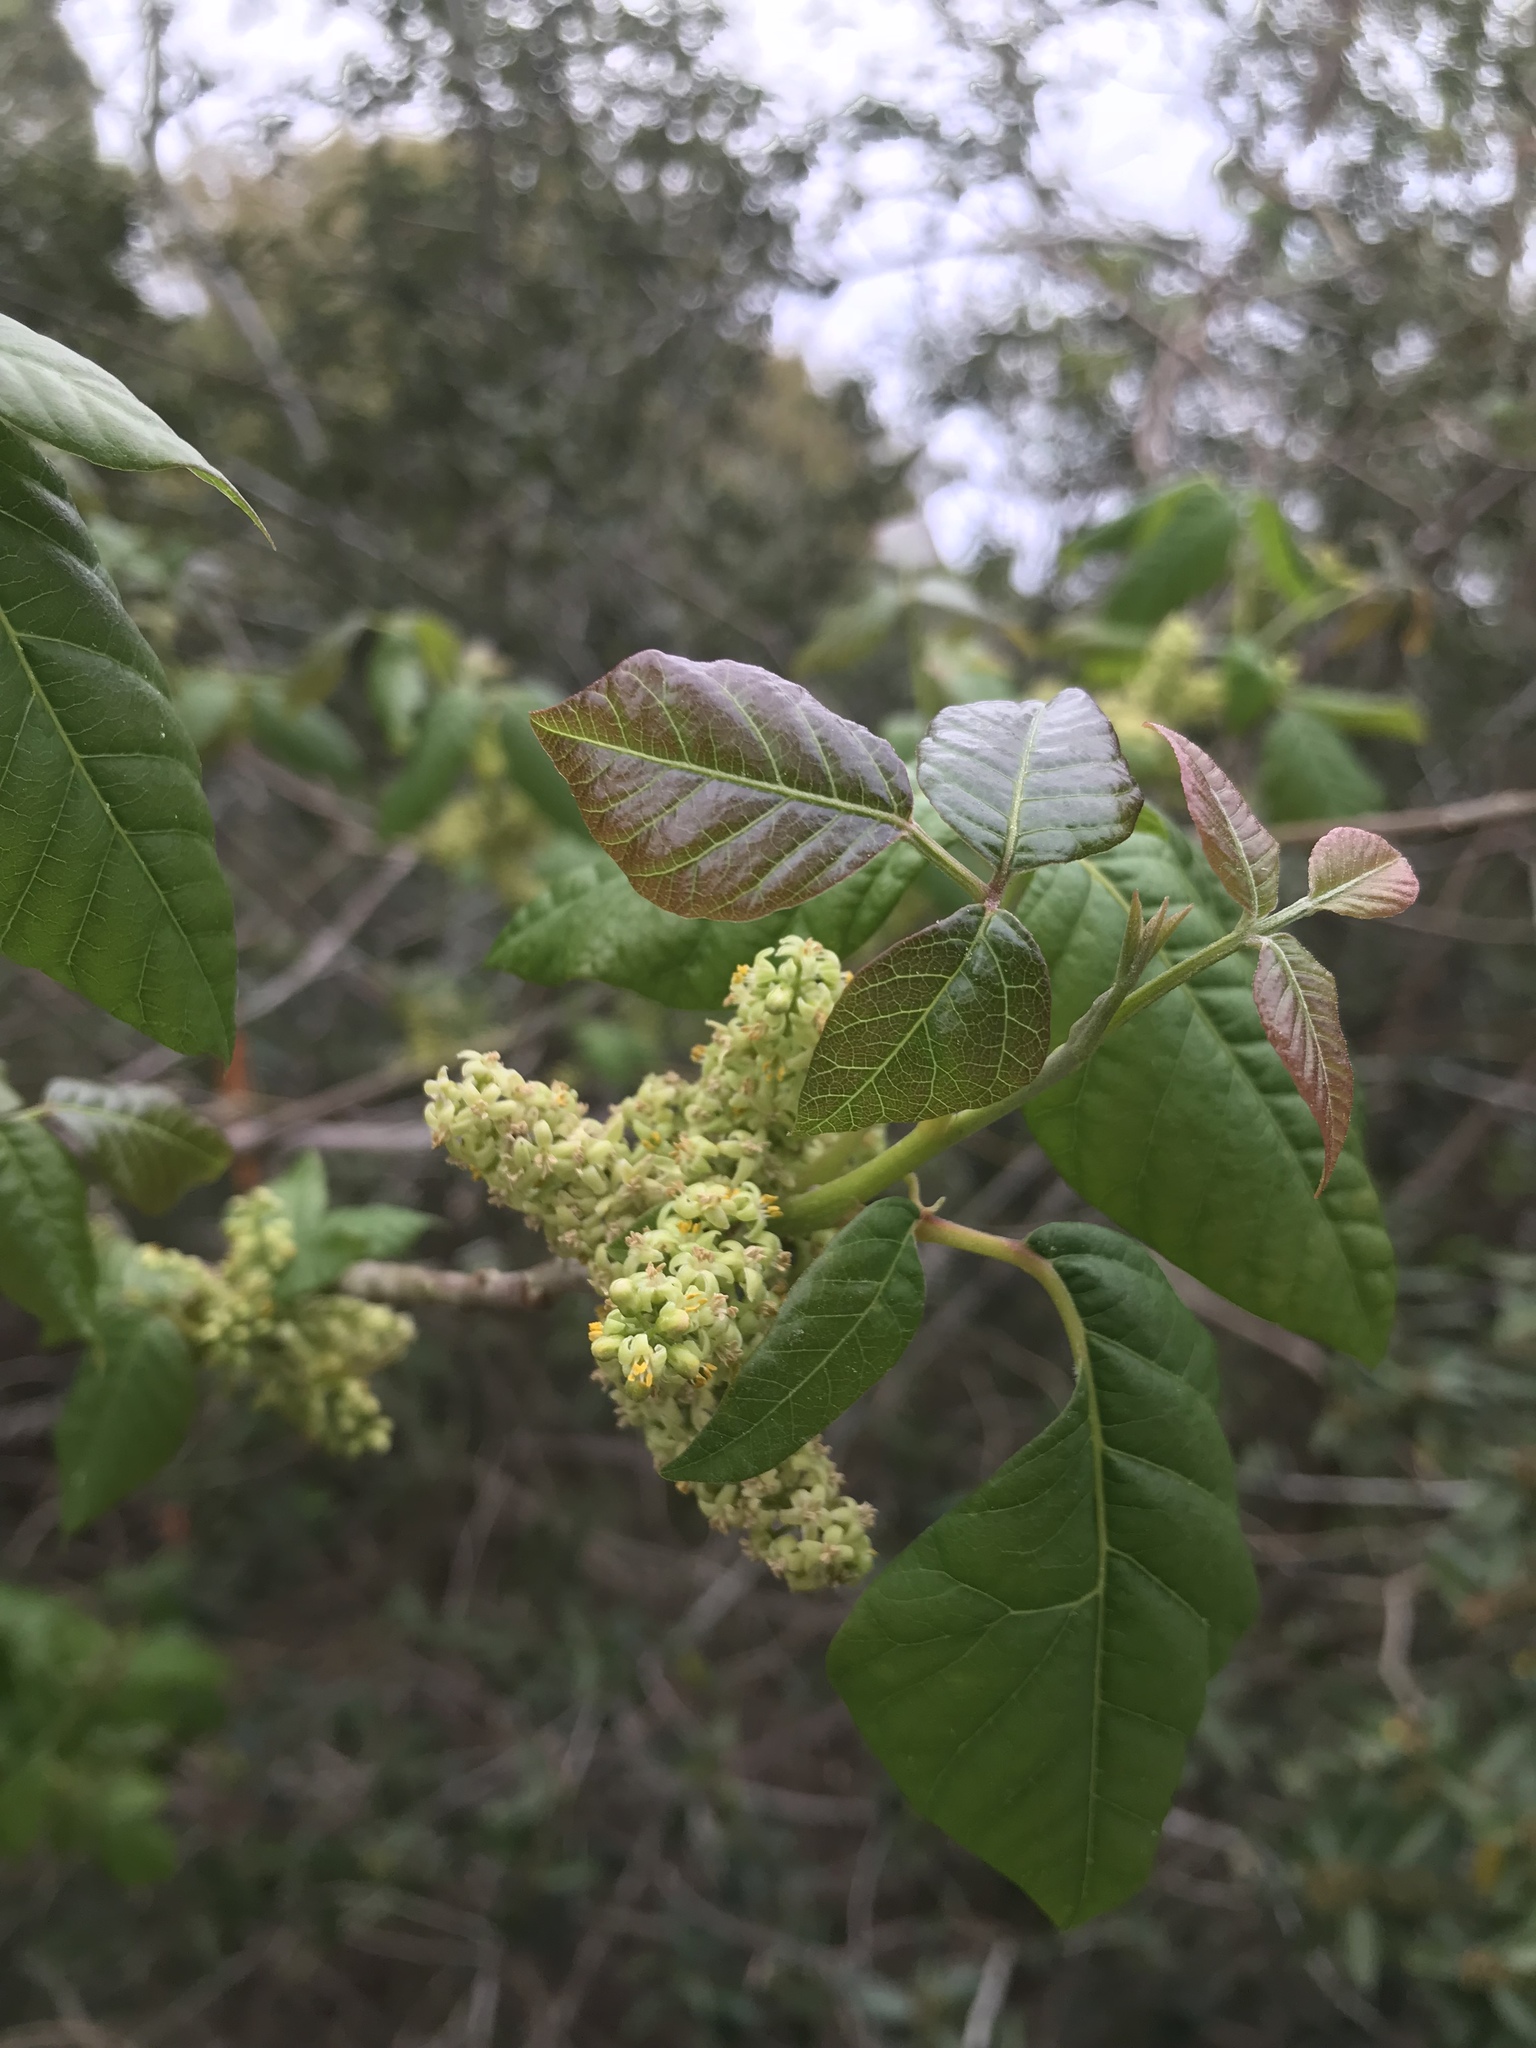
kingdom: Plantae
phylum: Tracheophyta
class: Magnoliopsida
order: Sapindales
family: Anacardiaceae
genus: Toxicodendron
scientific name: Toxicodendron radicans
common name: Poison ivy
